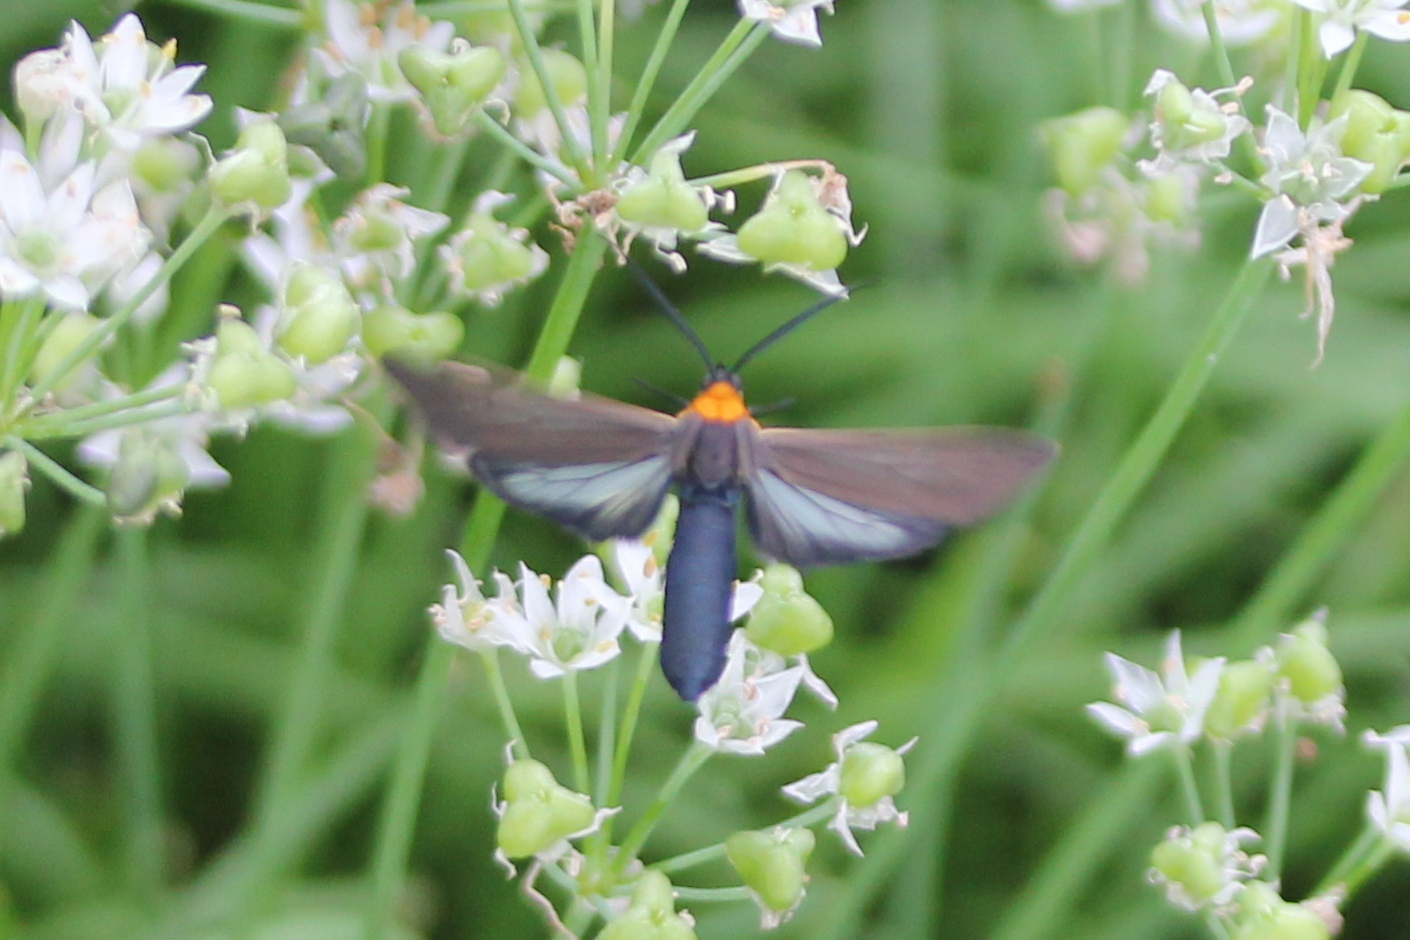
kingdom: Animalia
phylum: Arthropoda
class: Insecta
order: Lepidoptera
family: Erebidae
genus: Cisseps
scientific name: Cisseps fulvicollis
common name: Yellow-collared scape moth
